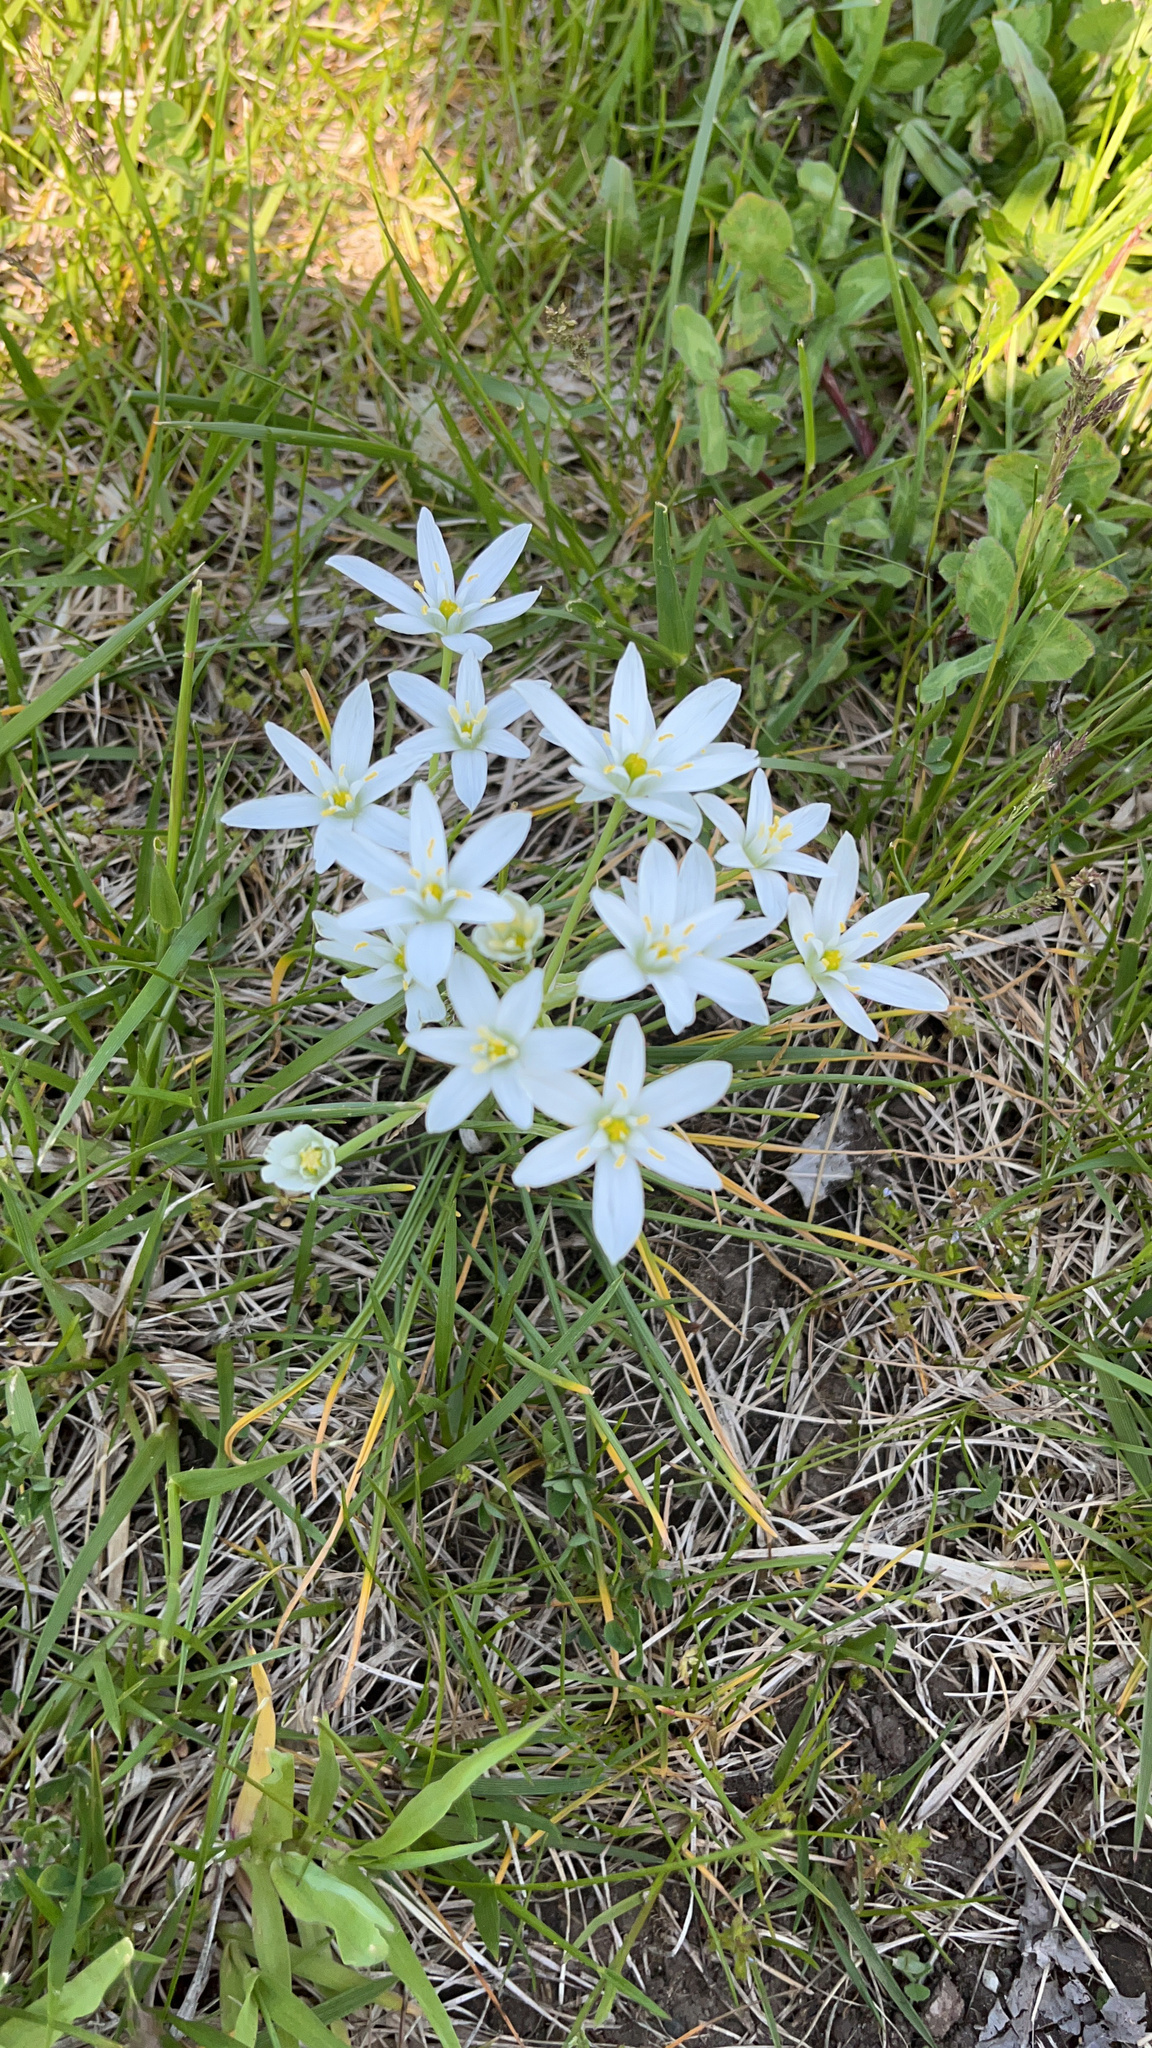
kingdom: Plantae
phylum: Tracheophyta
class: Liliopsida
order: Asparagales
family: Asparagaceae
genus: Ornithogalum
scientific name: Ornithogalum umbellatum
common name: Garden star-of-bethlehem
